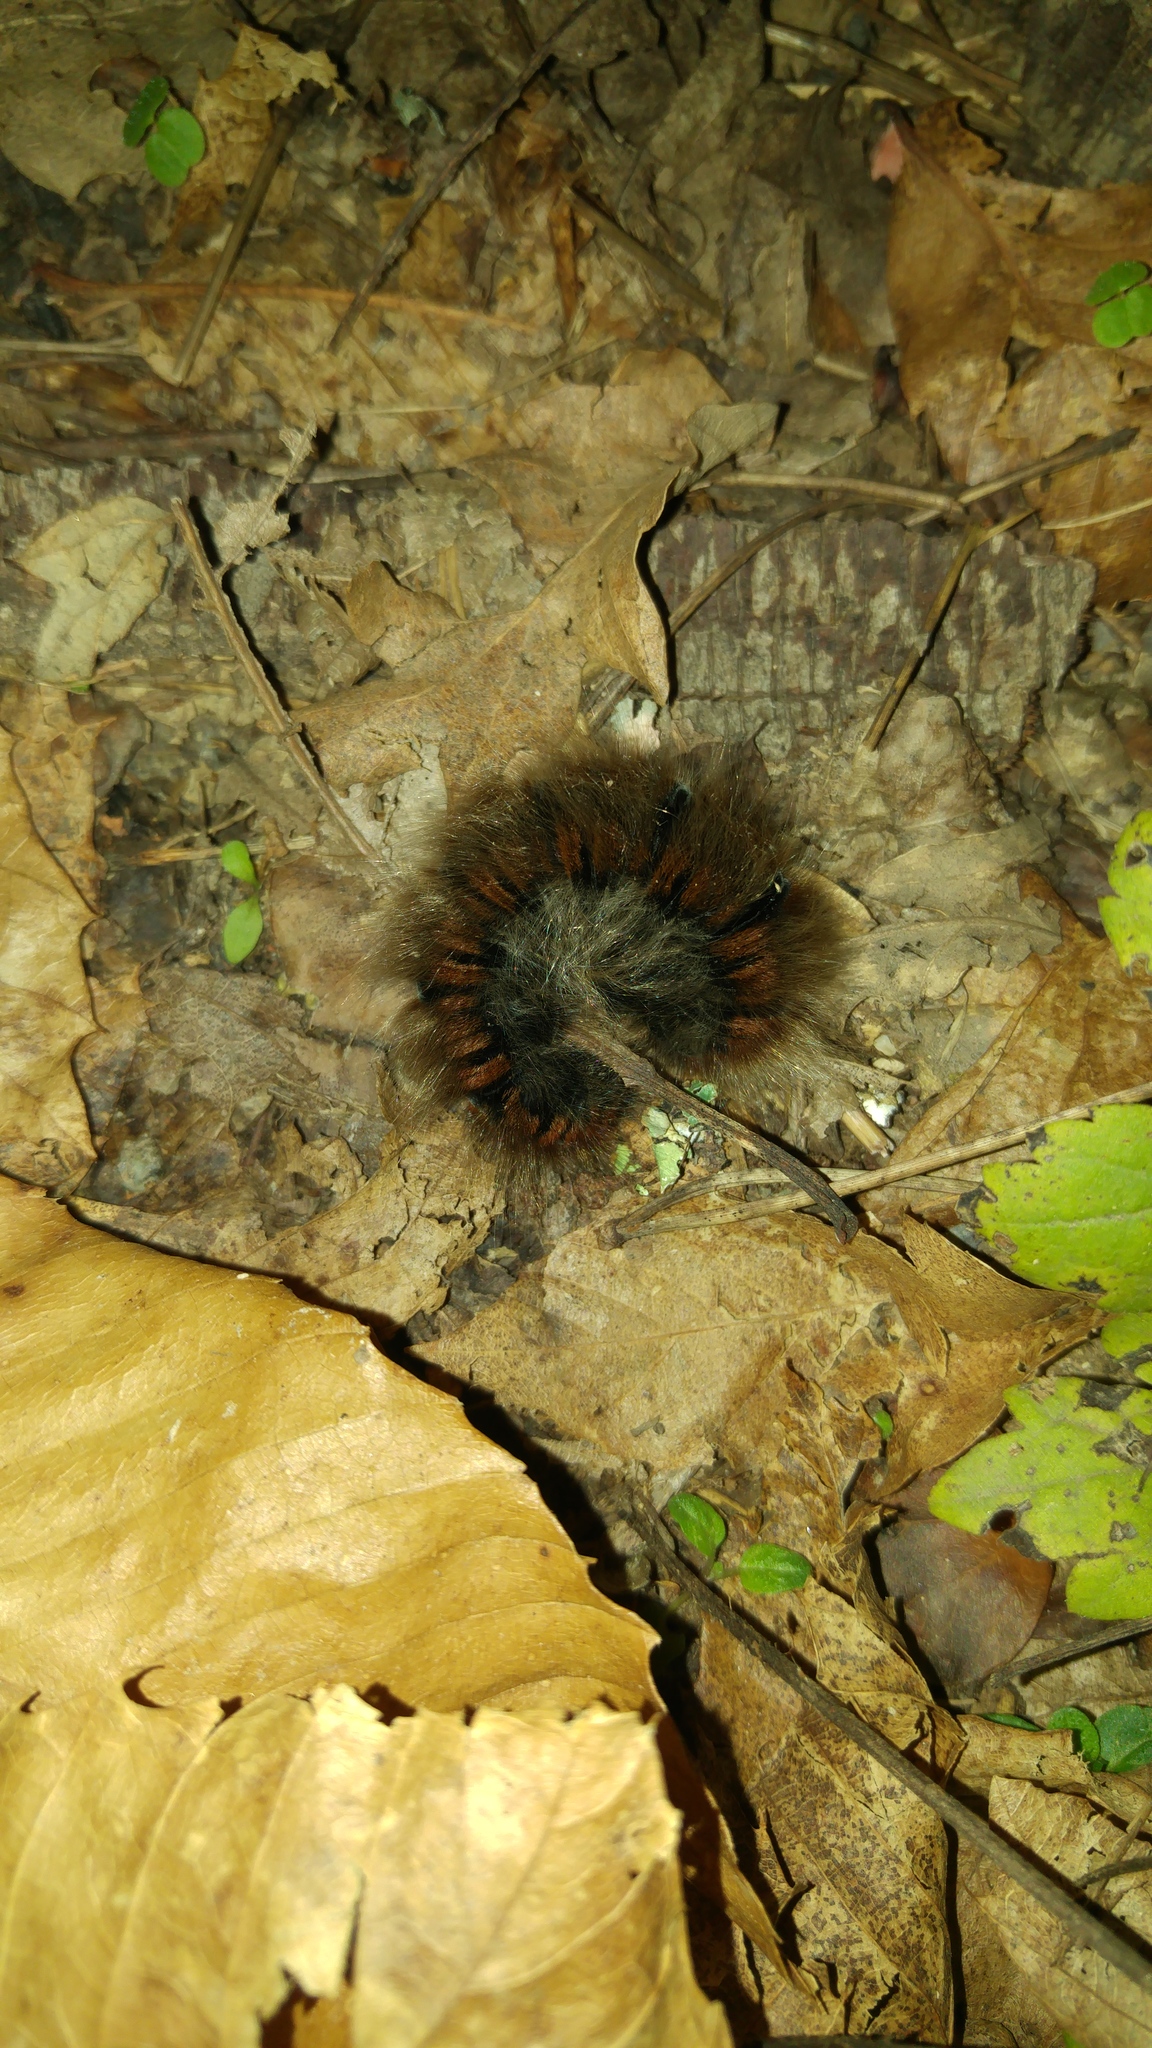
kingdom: Animalia
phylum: Arthropoda
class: Insecta
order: Lepidoptera
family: Lasiocampidae
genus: Macrothylacia
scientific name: Macrothylacia rubi
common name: Fox moth
